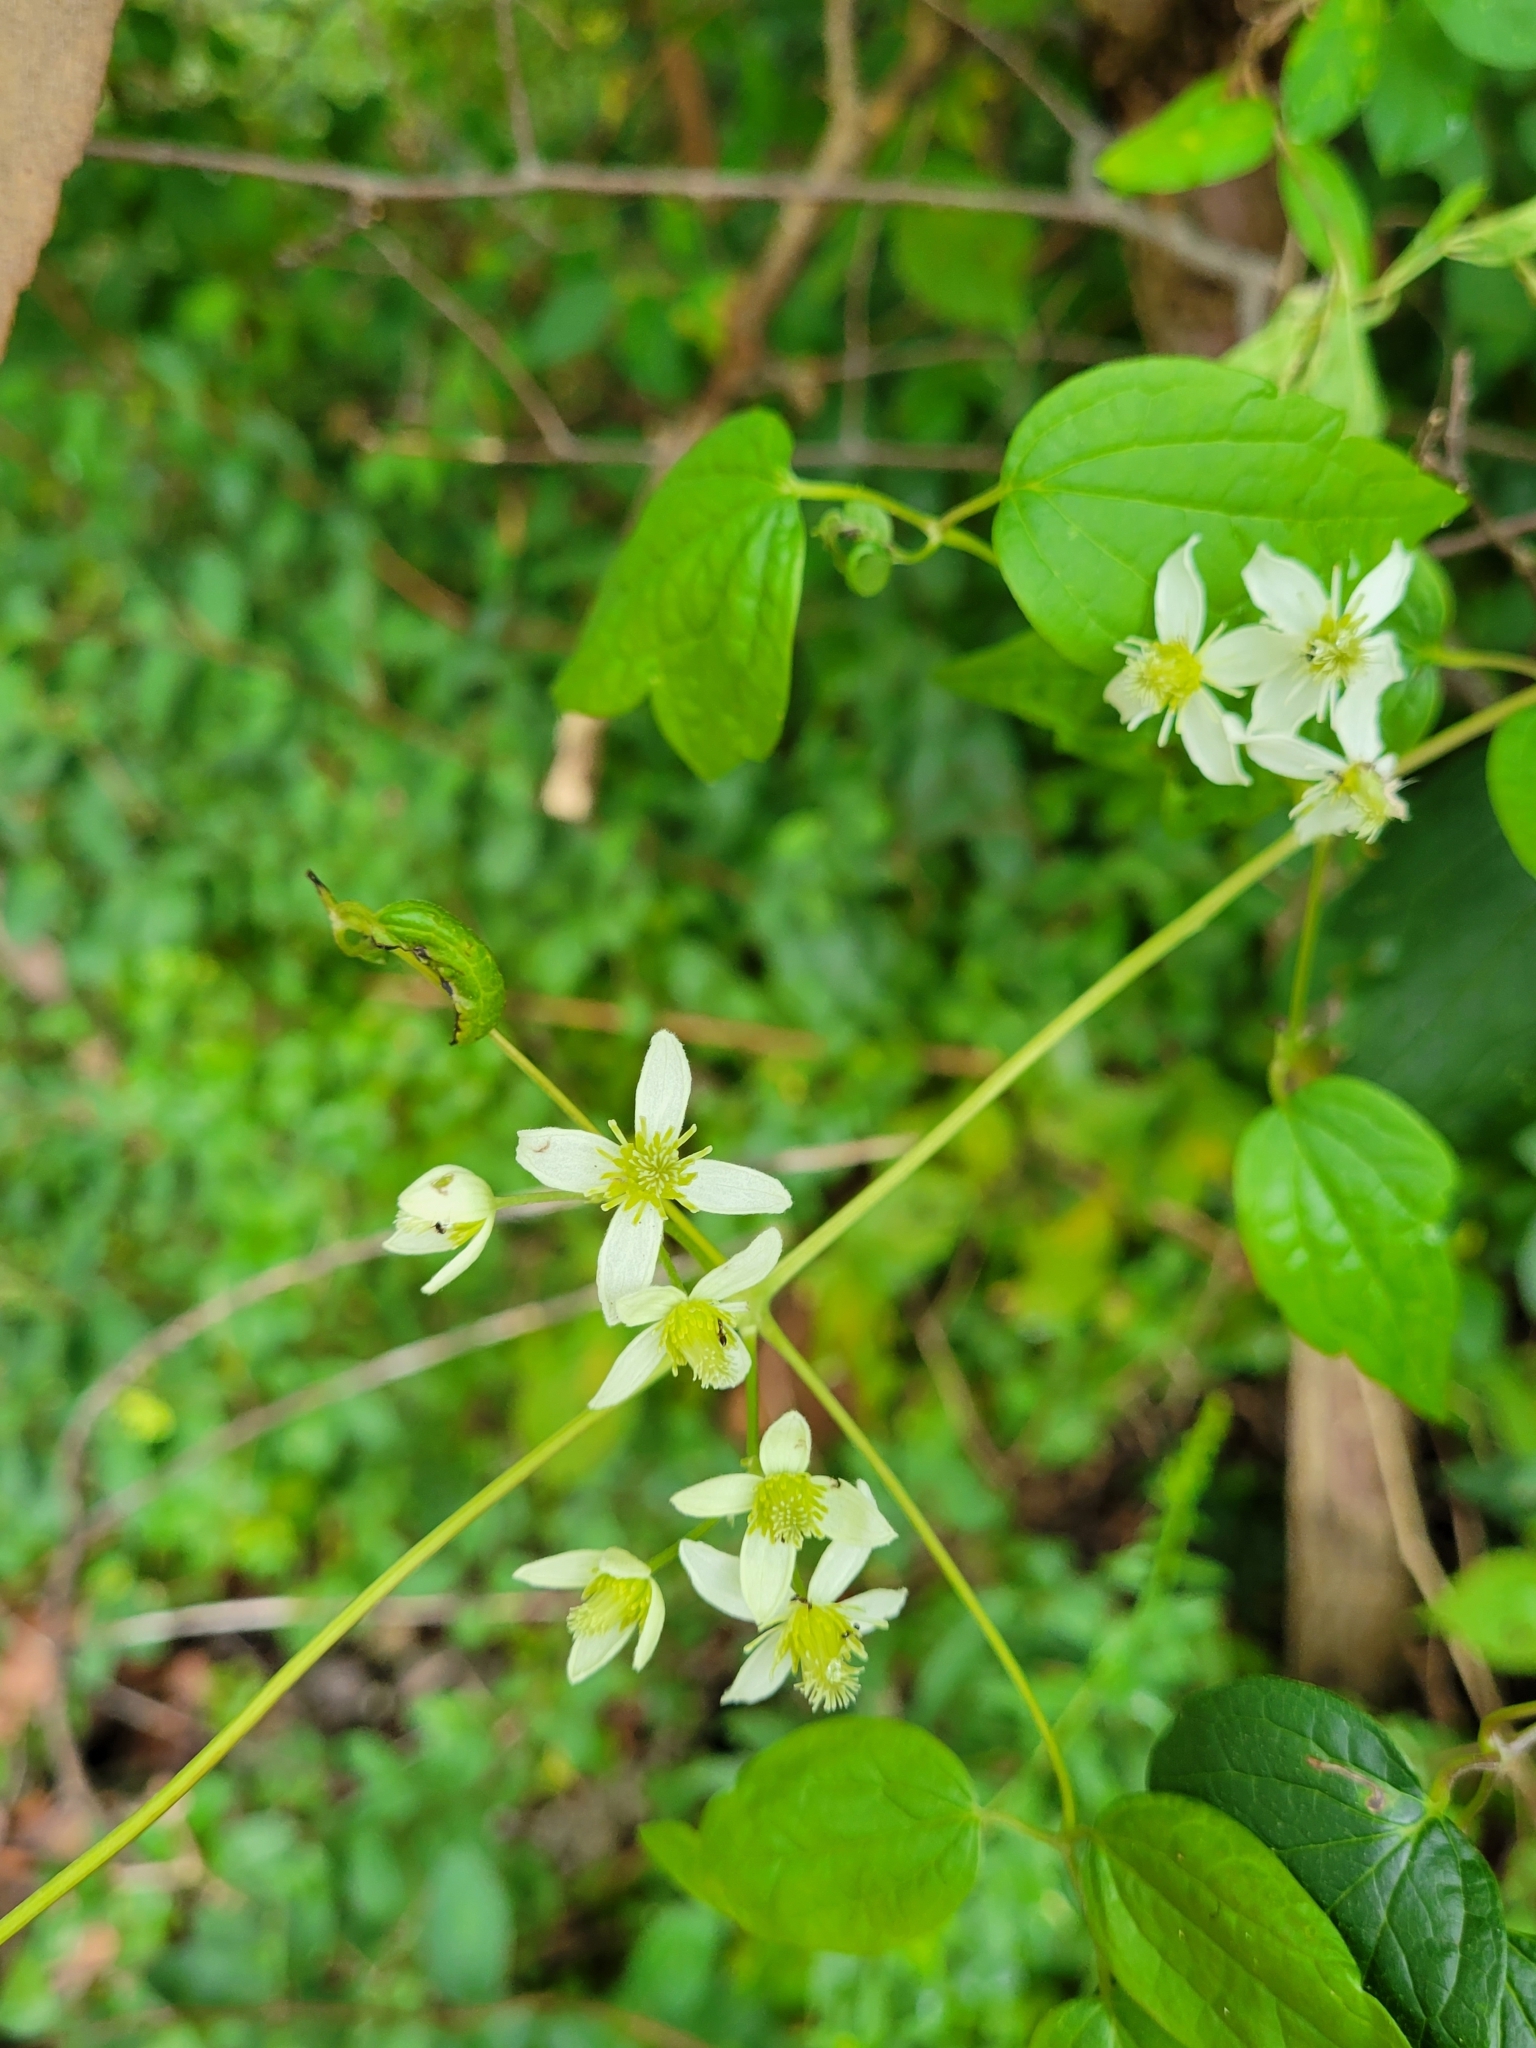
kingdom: Plantae
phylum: Tracheophyta
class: Magnoliopsida
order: Ranunculales
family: Ranunculaceae
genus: Clematis
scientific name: Clematis virginiana
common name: Virgin's-bower
